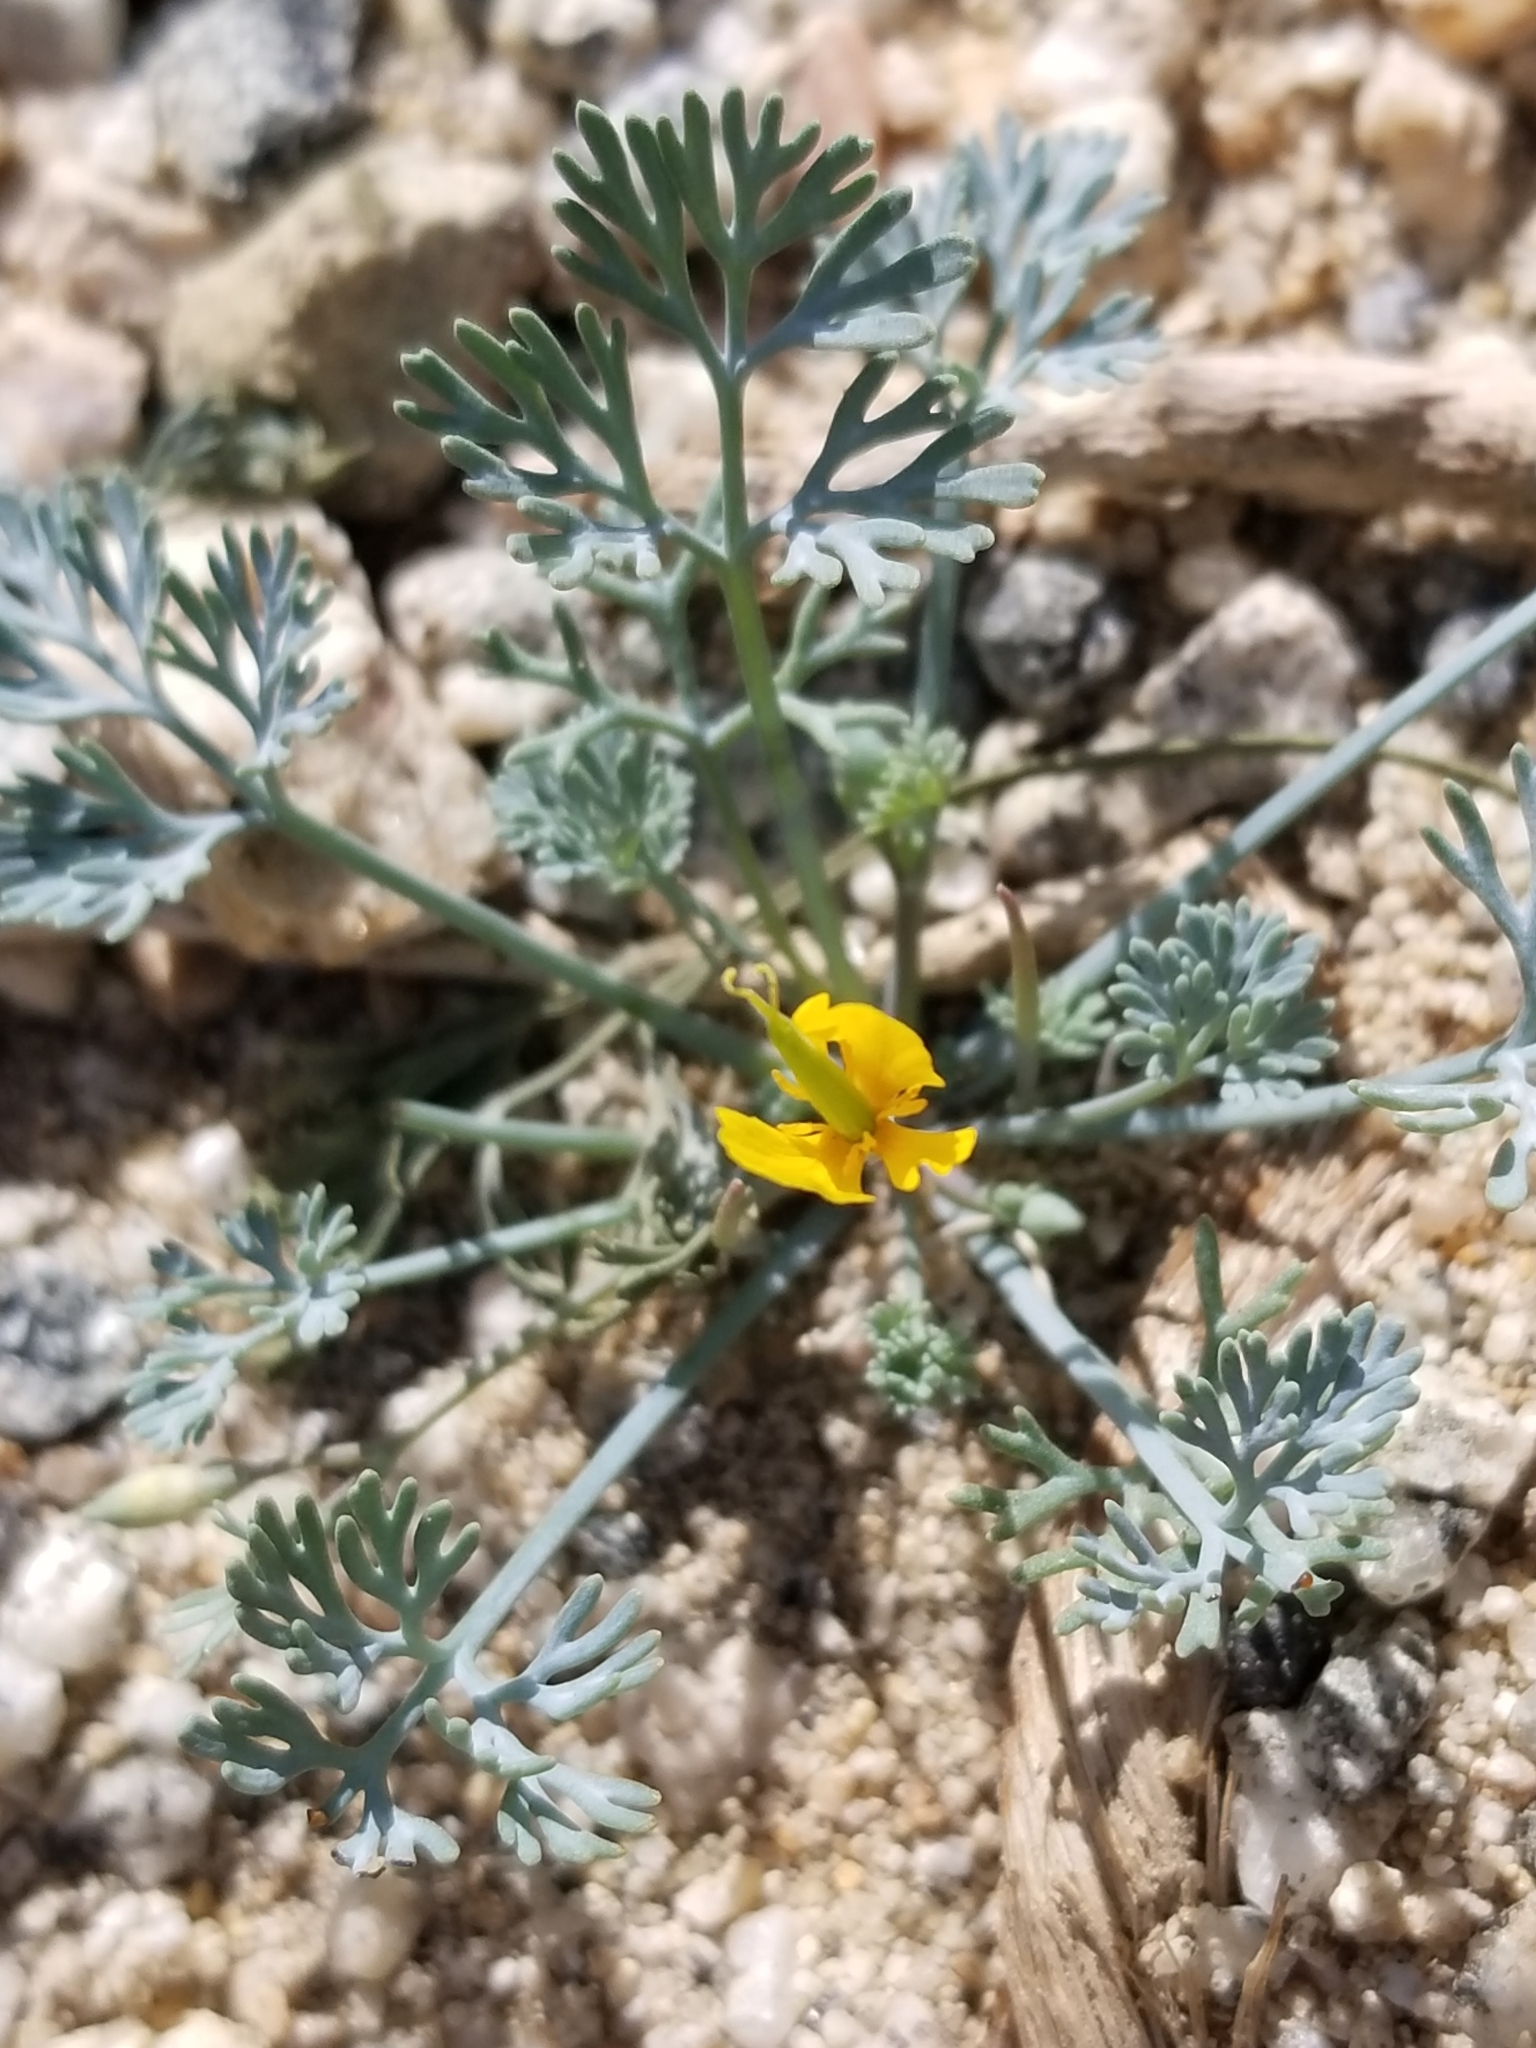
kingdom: Plantae
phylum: Tracheophyta
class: Magnoliopsida
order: Ranunculales
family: Papaveraceae
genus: Eschscholzia
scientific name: Eschscholzia minutiflora
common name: Small-flower california-poppy
